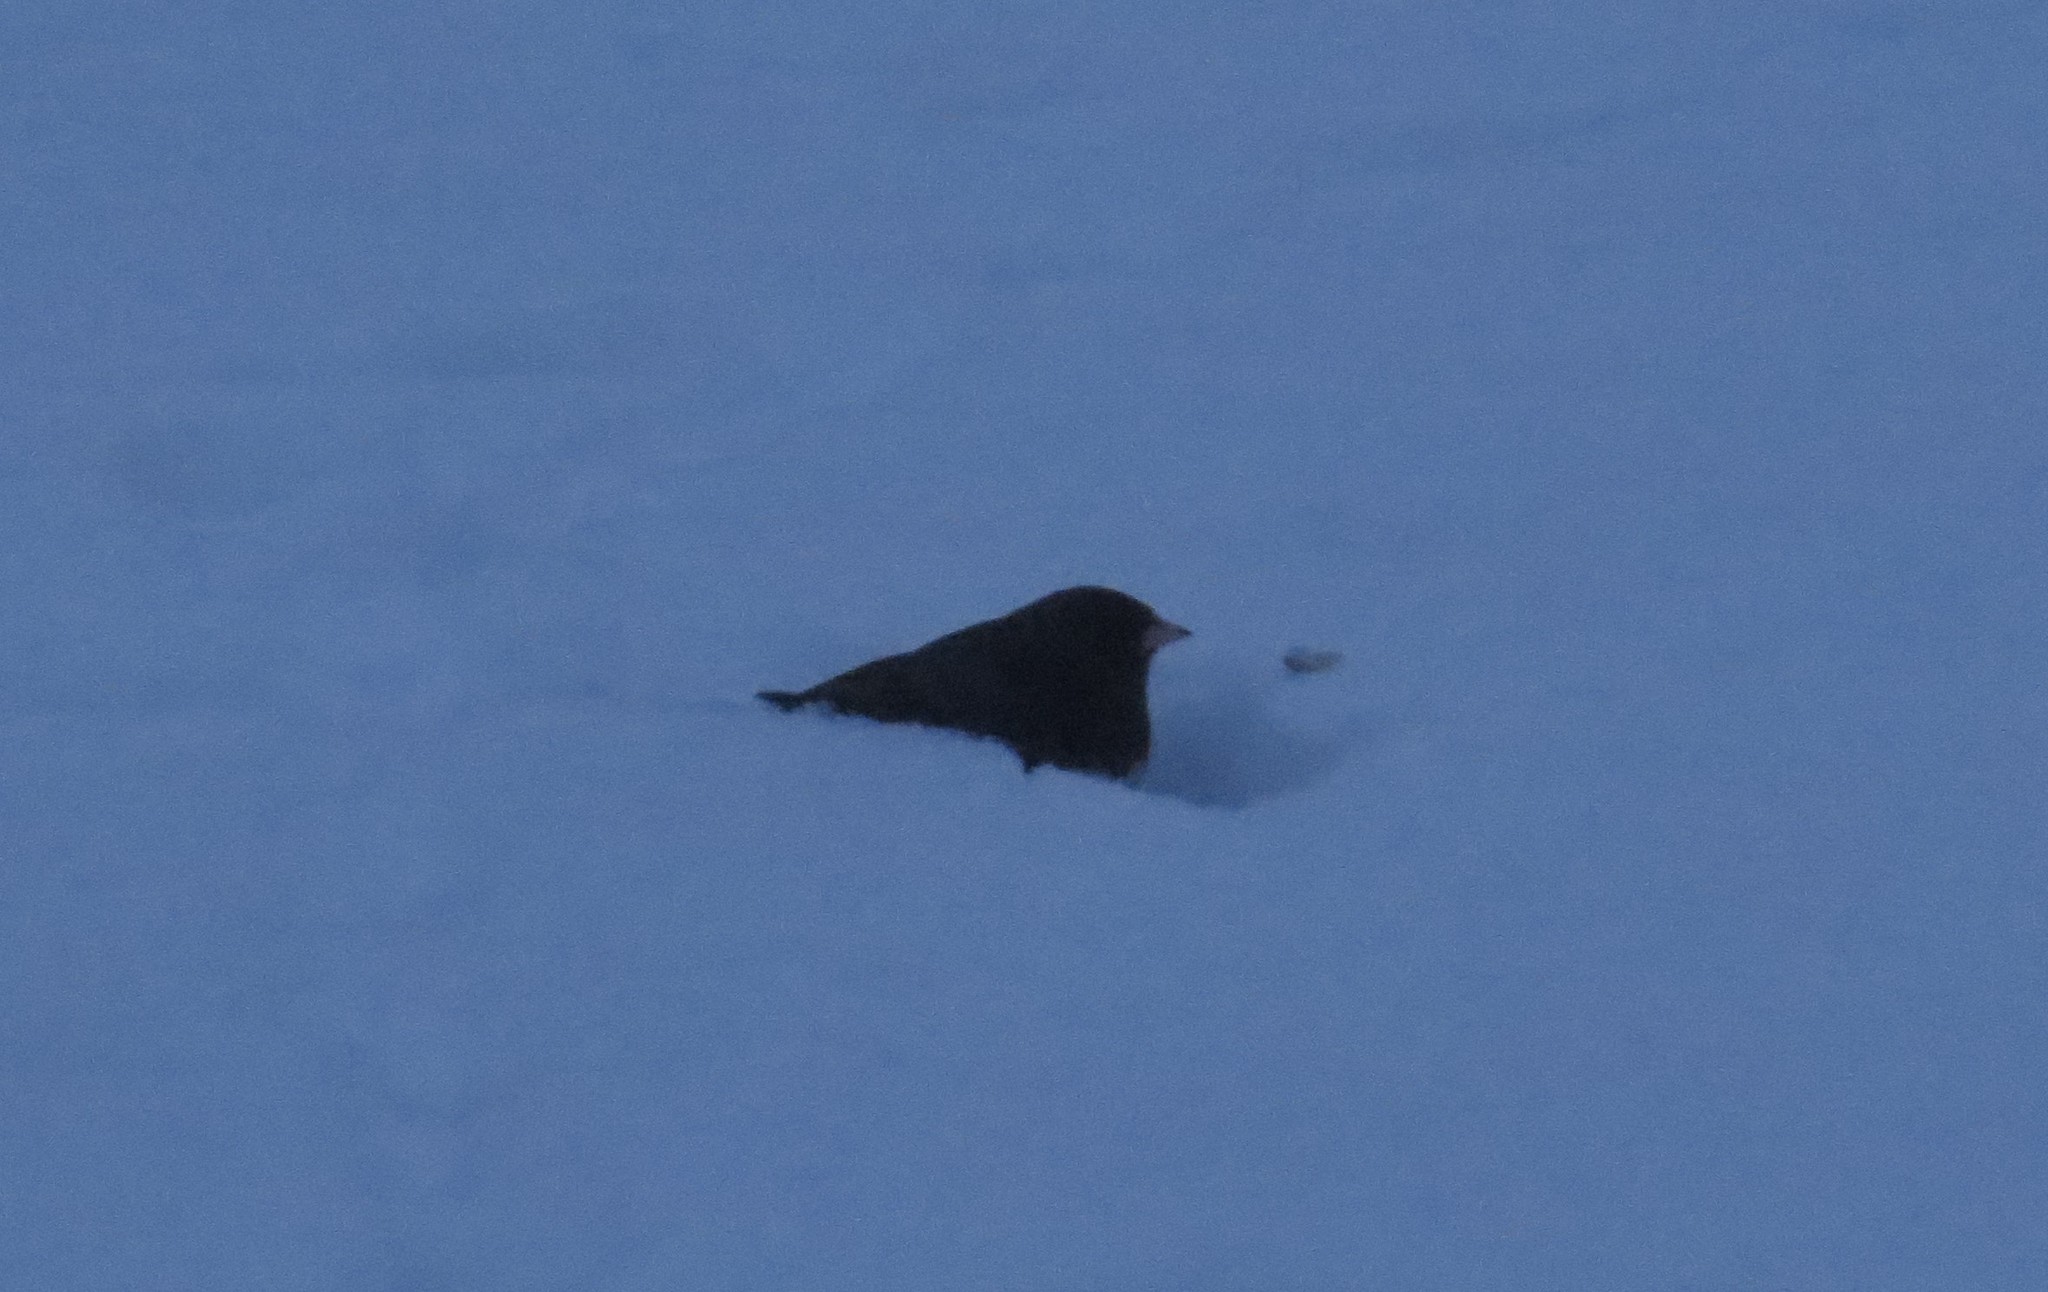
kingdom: Animalia
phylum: Chordata
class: Aves
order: Passeriformes
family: Passerellidae
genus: Junco
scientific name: Junco hyemalis
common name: Dark-eyed junco
